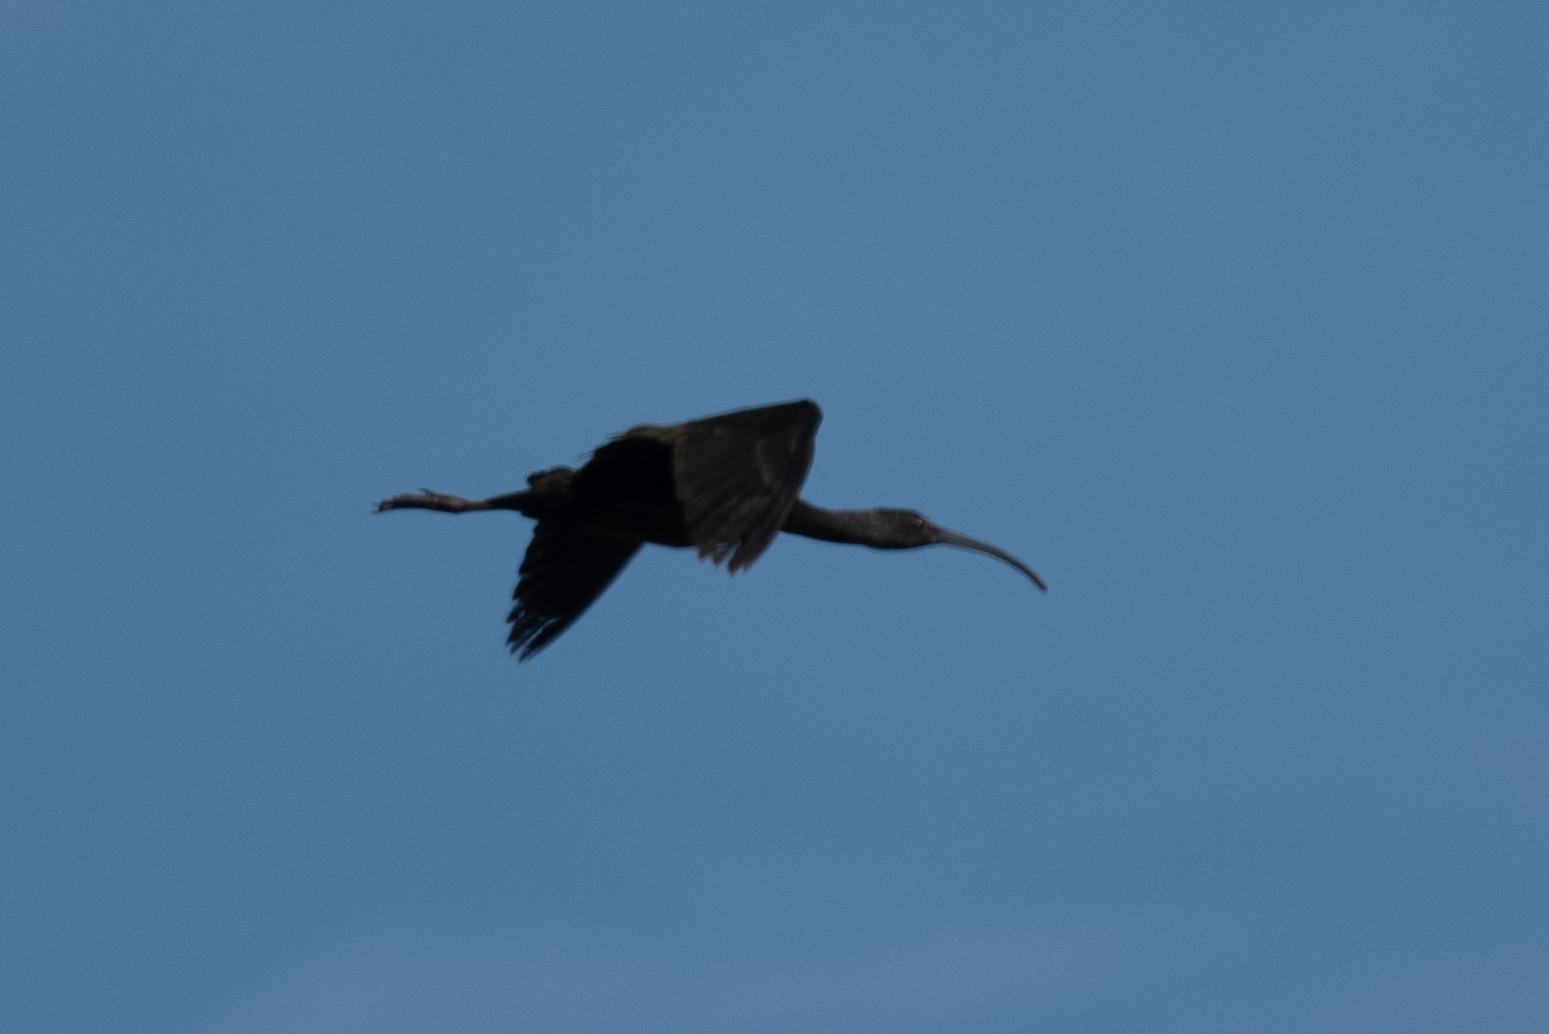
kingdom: Animalia
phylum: Chordata
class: Aves
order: Pelecaniformes
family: Threskiornithidae
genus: Plegadis
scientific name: Plegadis chihi
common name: White-faced ibis
